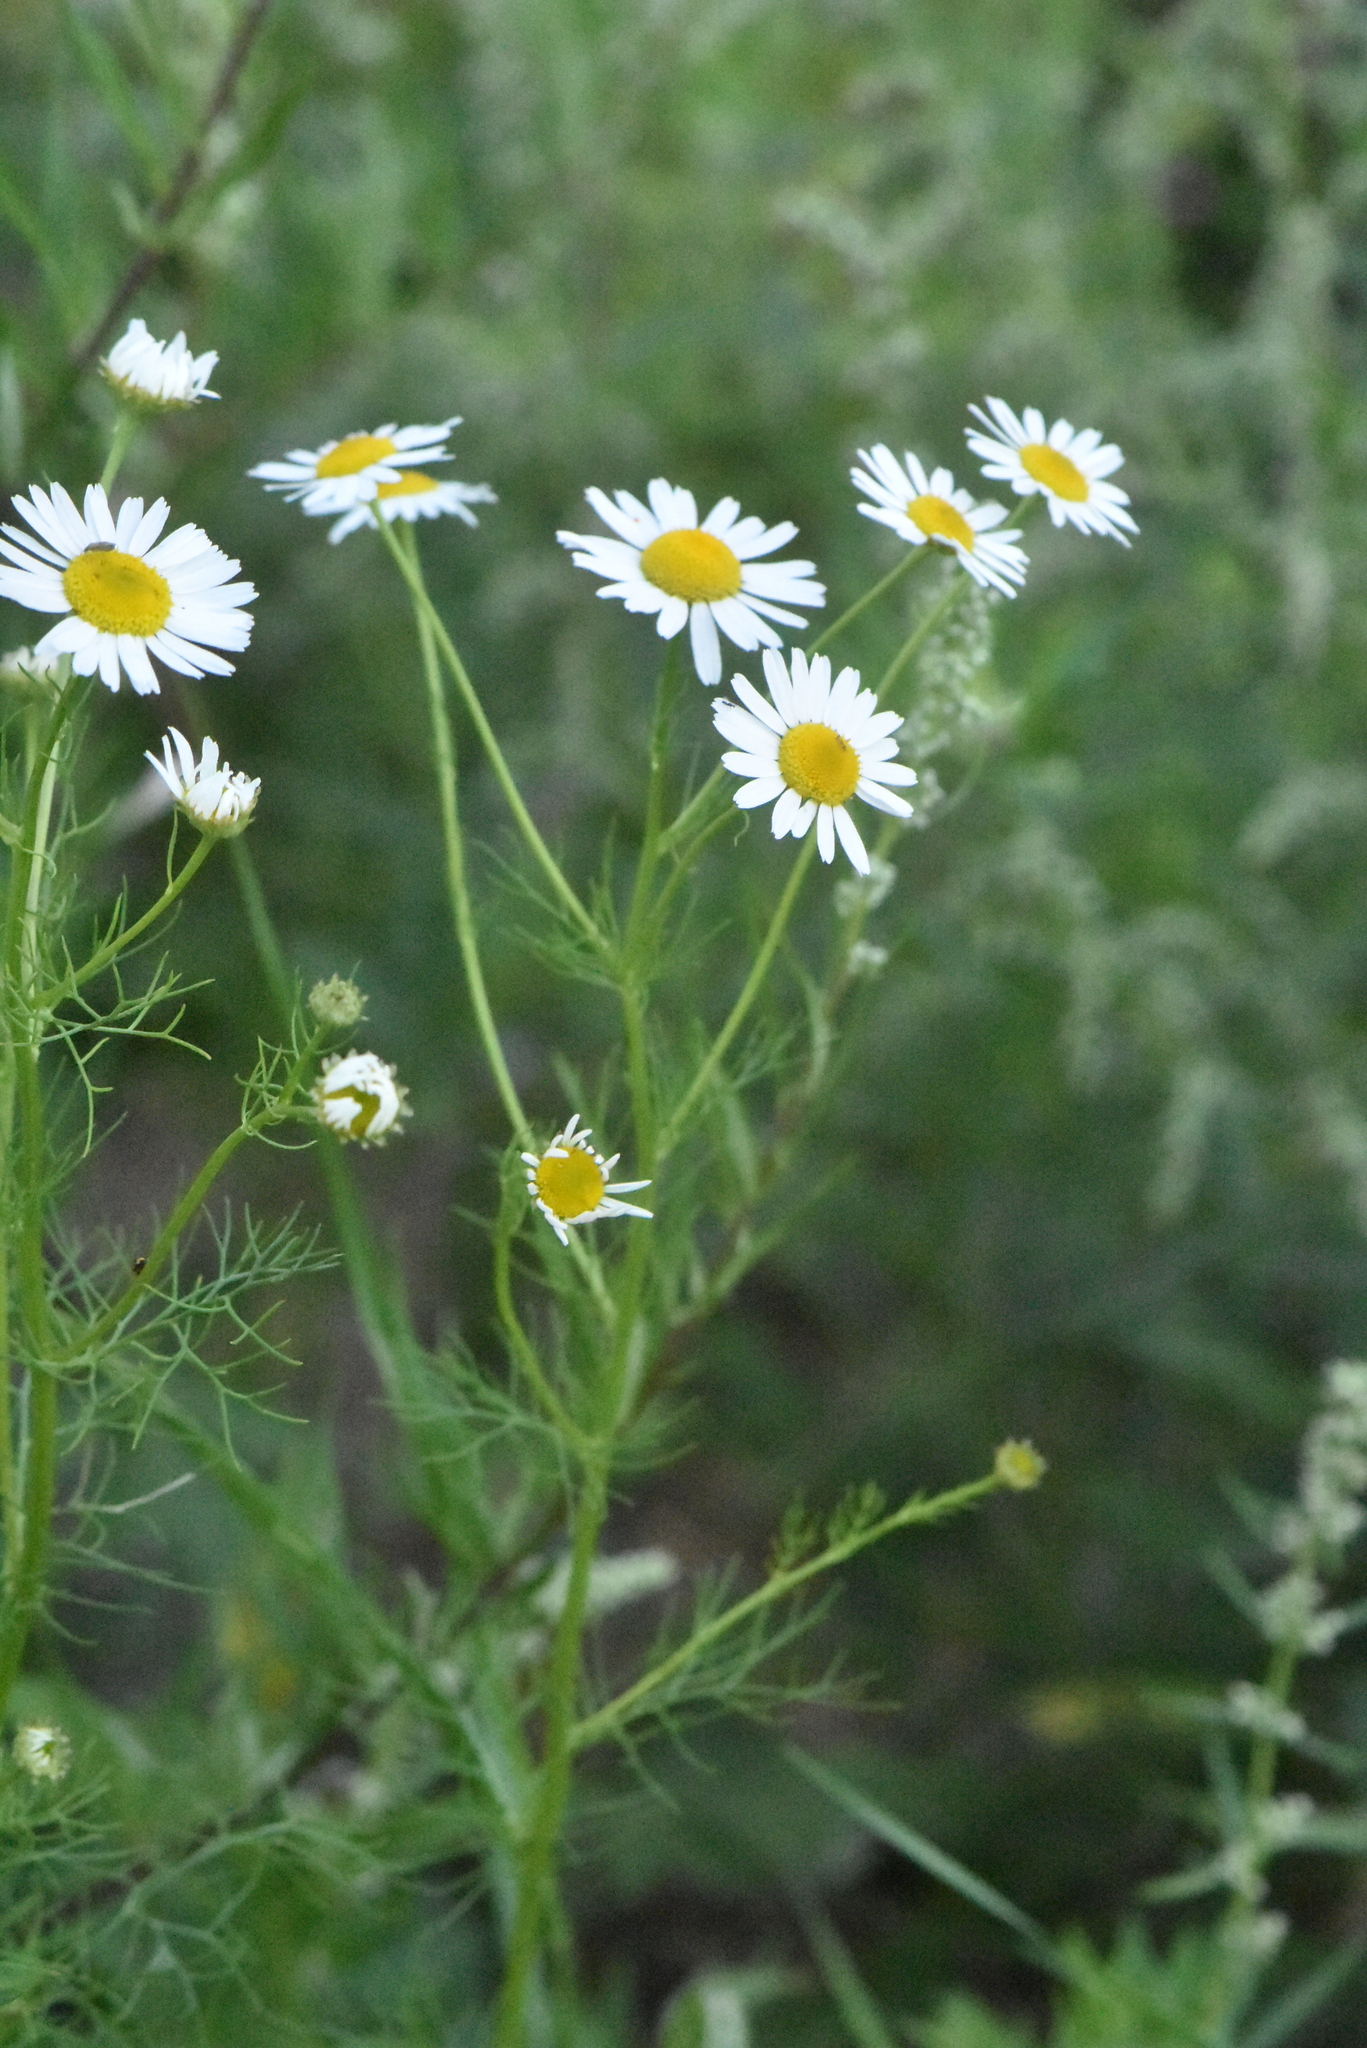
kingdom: Plantae
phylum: Tracheophyta
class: Magnoliopsida
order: Asterales
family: Asteraceae
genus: Tripleurospermum
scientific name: Tripleurospermum inodorum
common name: Scentless mayweed
